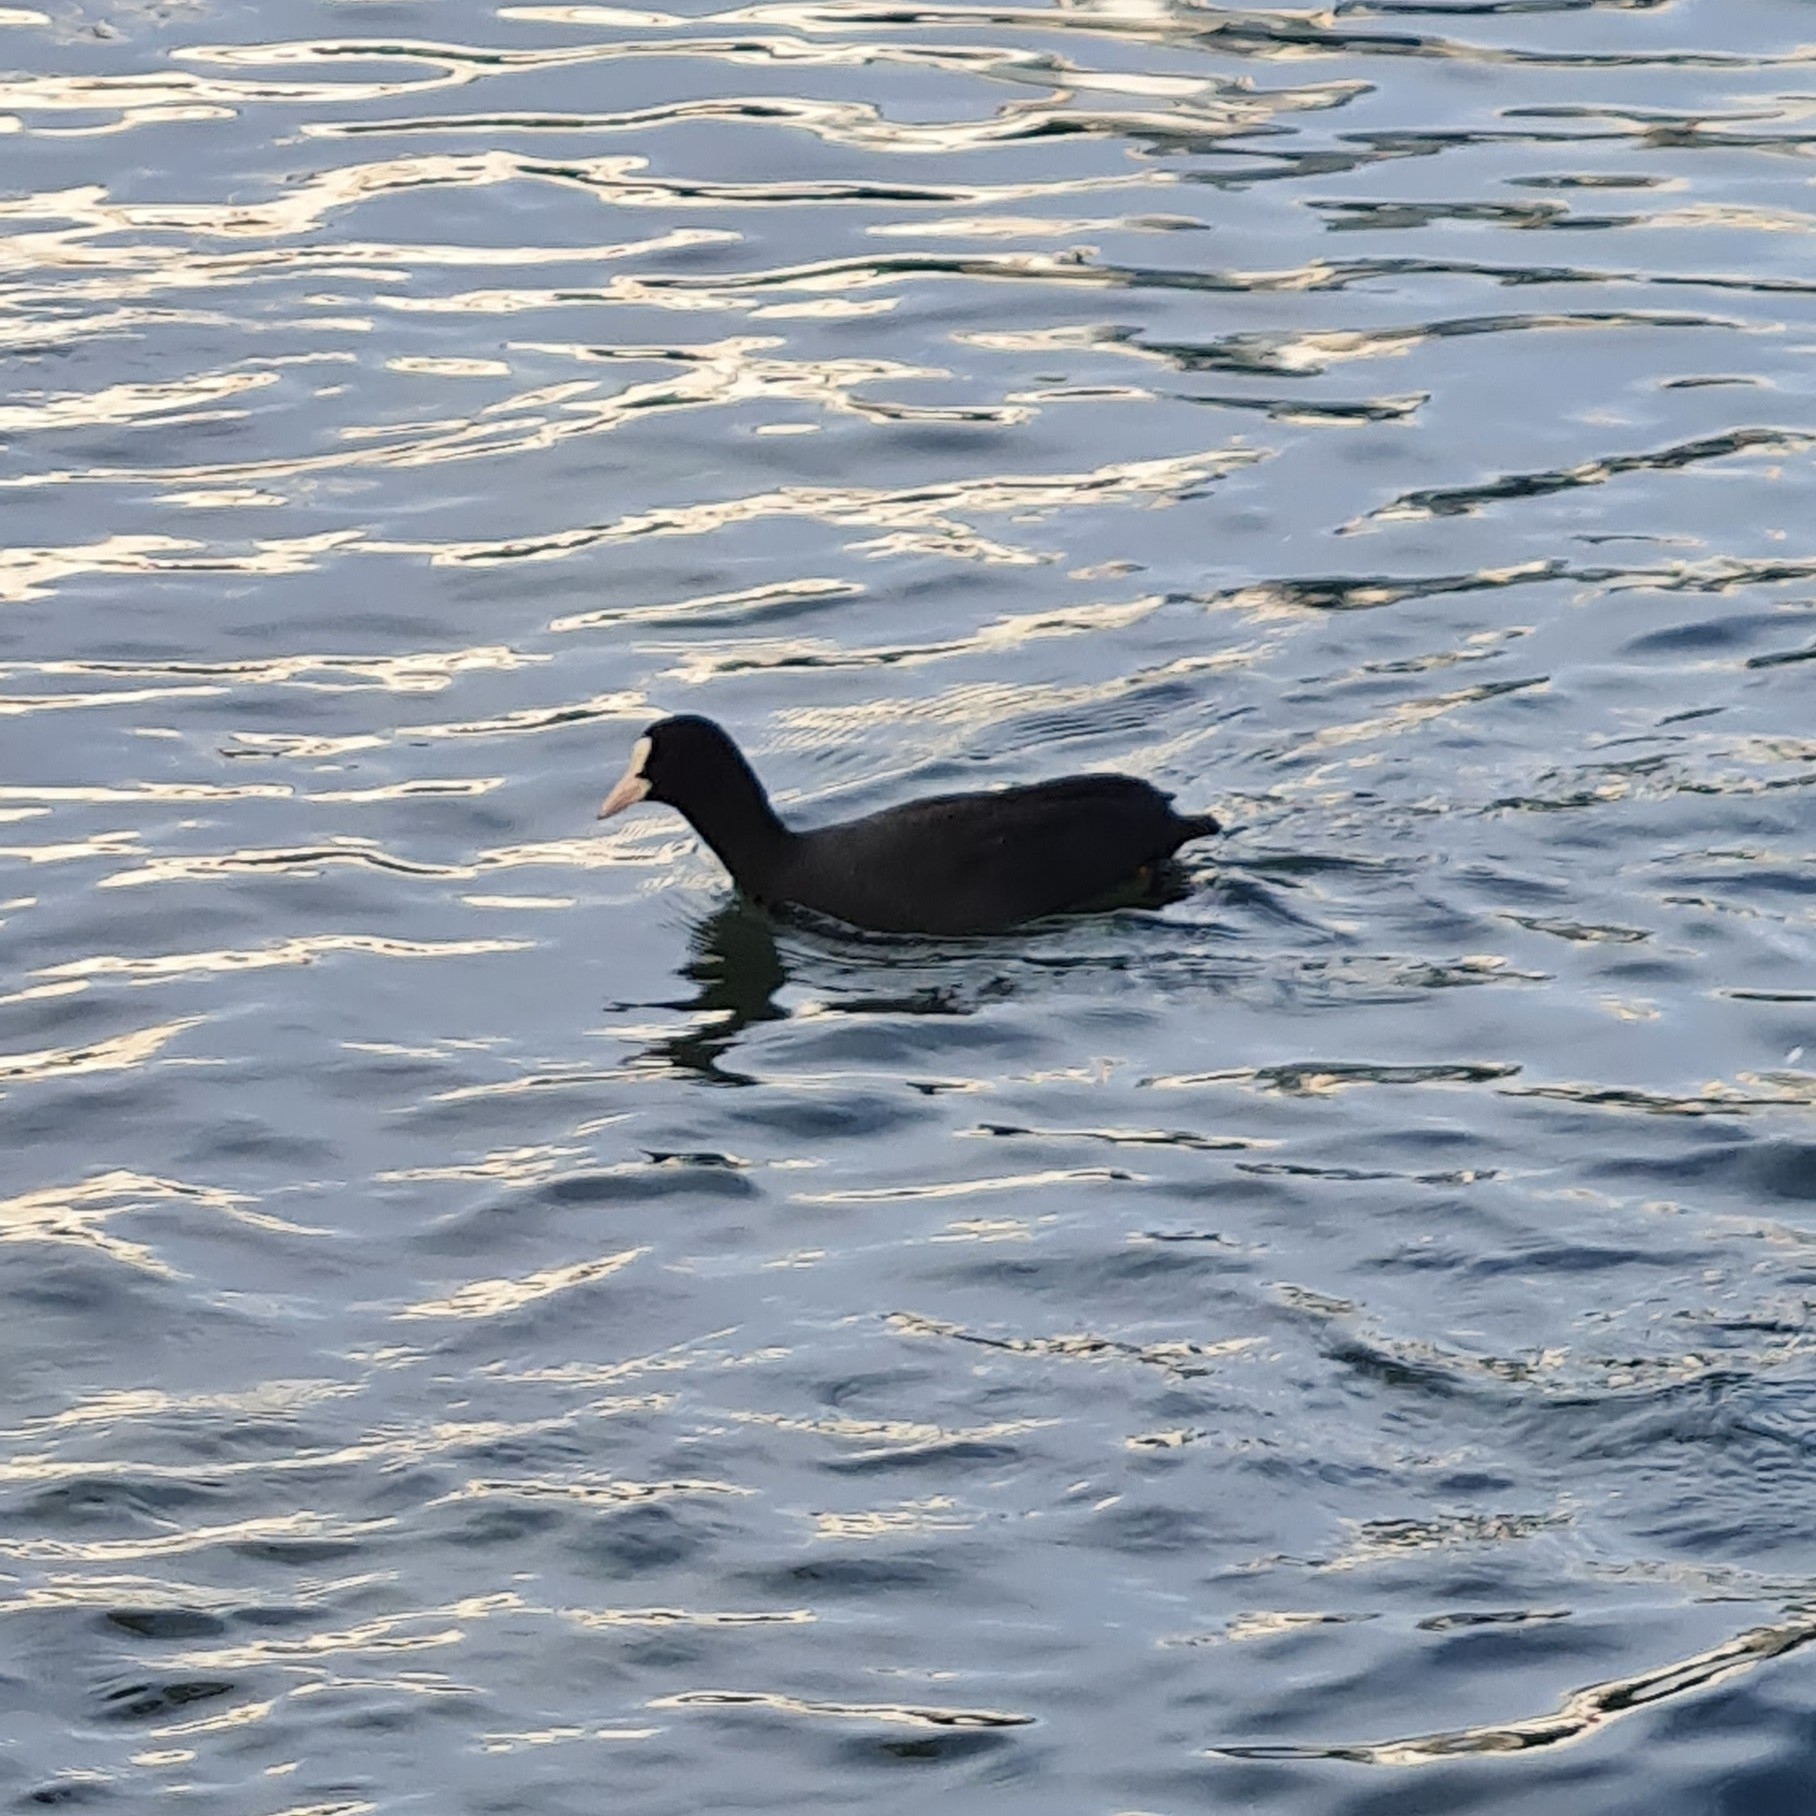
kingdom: Animalia
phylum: Chordata
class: Aves
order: Gruiformes
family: Rallidae
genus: Fulica
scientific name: Fulica atra
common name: Eurasian coot
